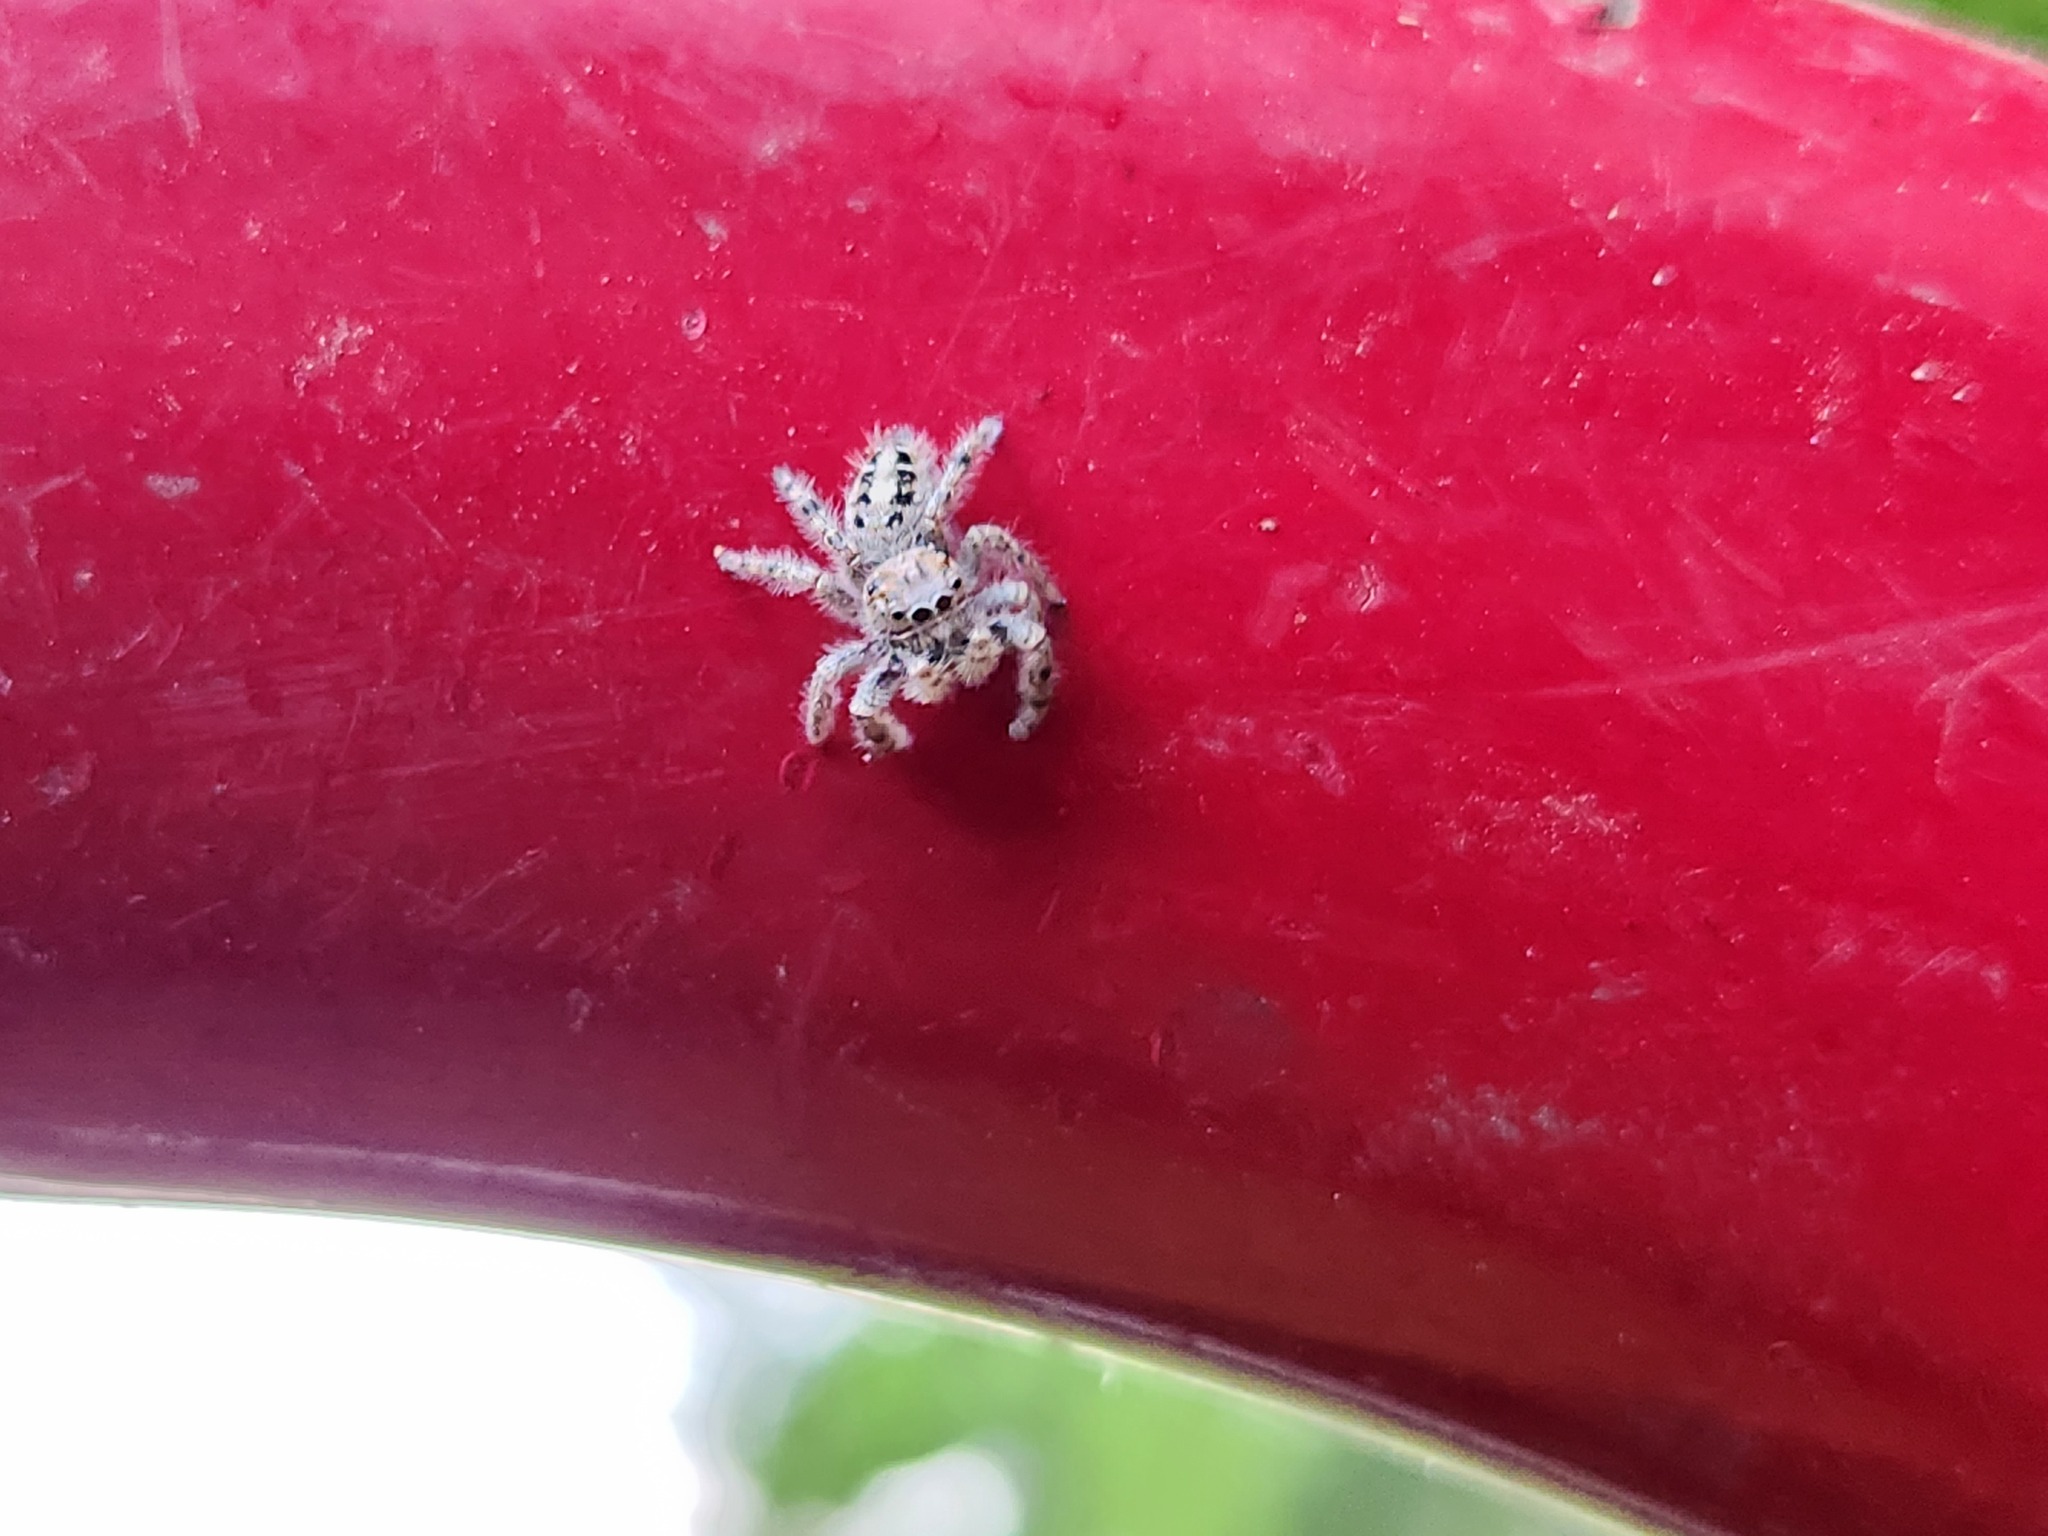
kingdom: Animalia
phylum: Arthropoda
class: Arachnida
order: Araneae
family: Salticidae
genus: Phidippus
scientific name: Phidippus putnami
